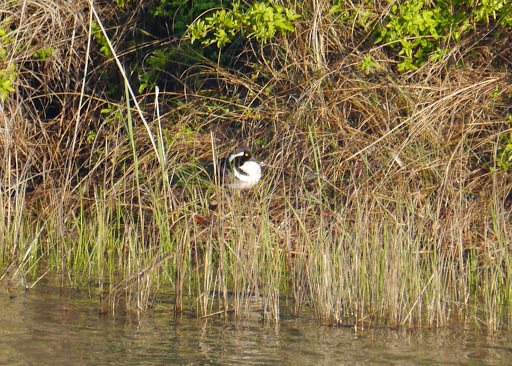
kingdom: Animalia
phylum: Chordata
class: Aves
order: Anseriformes
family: Anatidae
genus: Lophodytes
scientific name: Lophodytes cucullatus
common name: Hooded merganser
